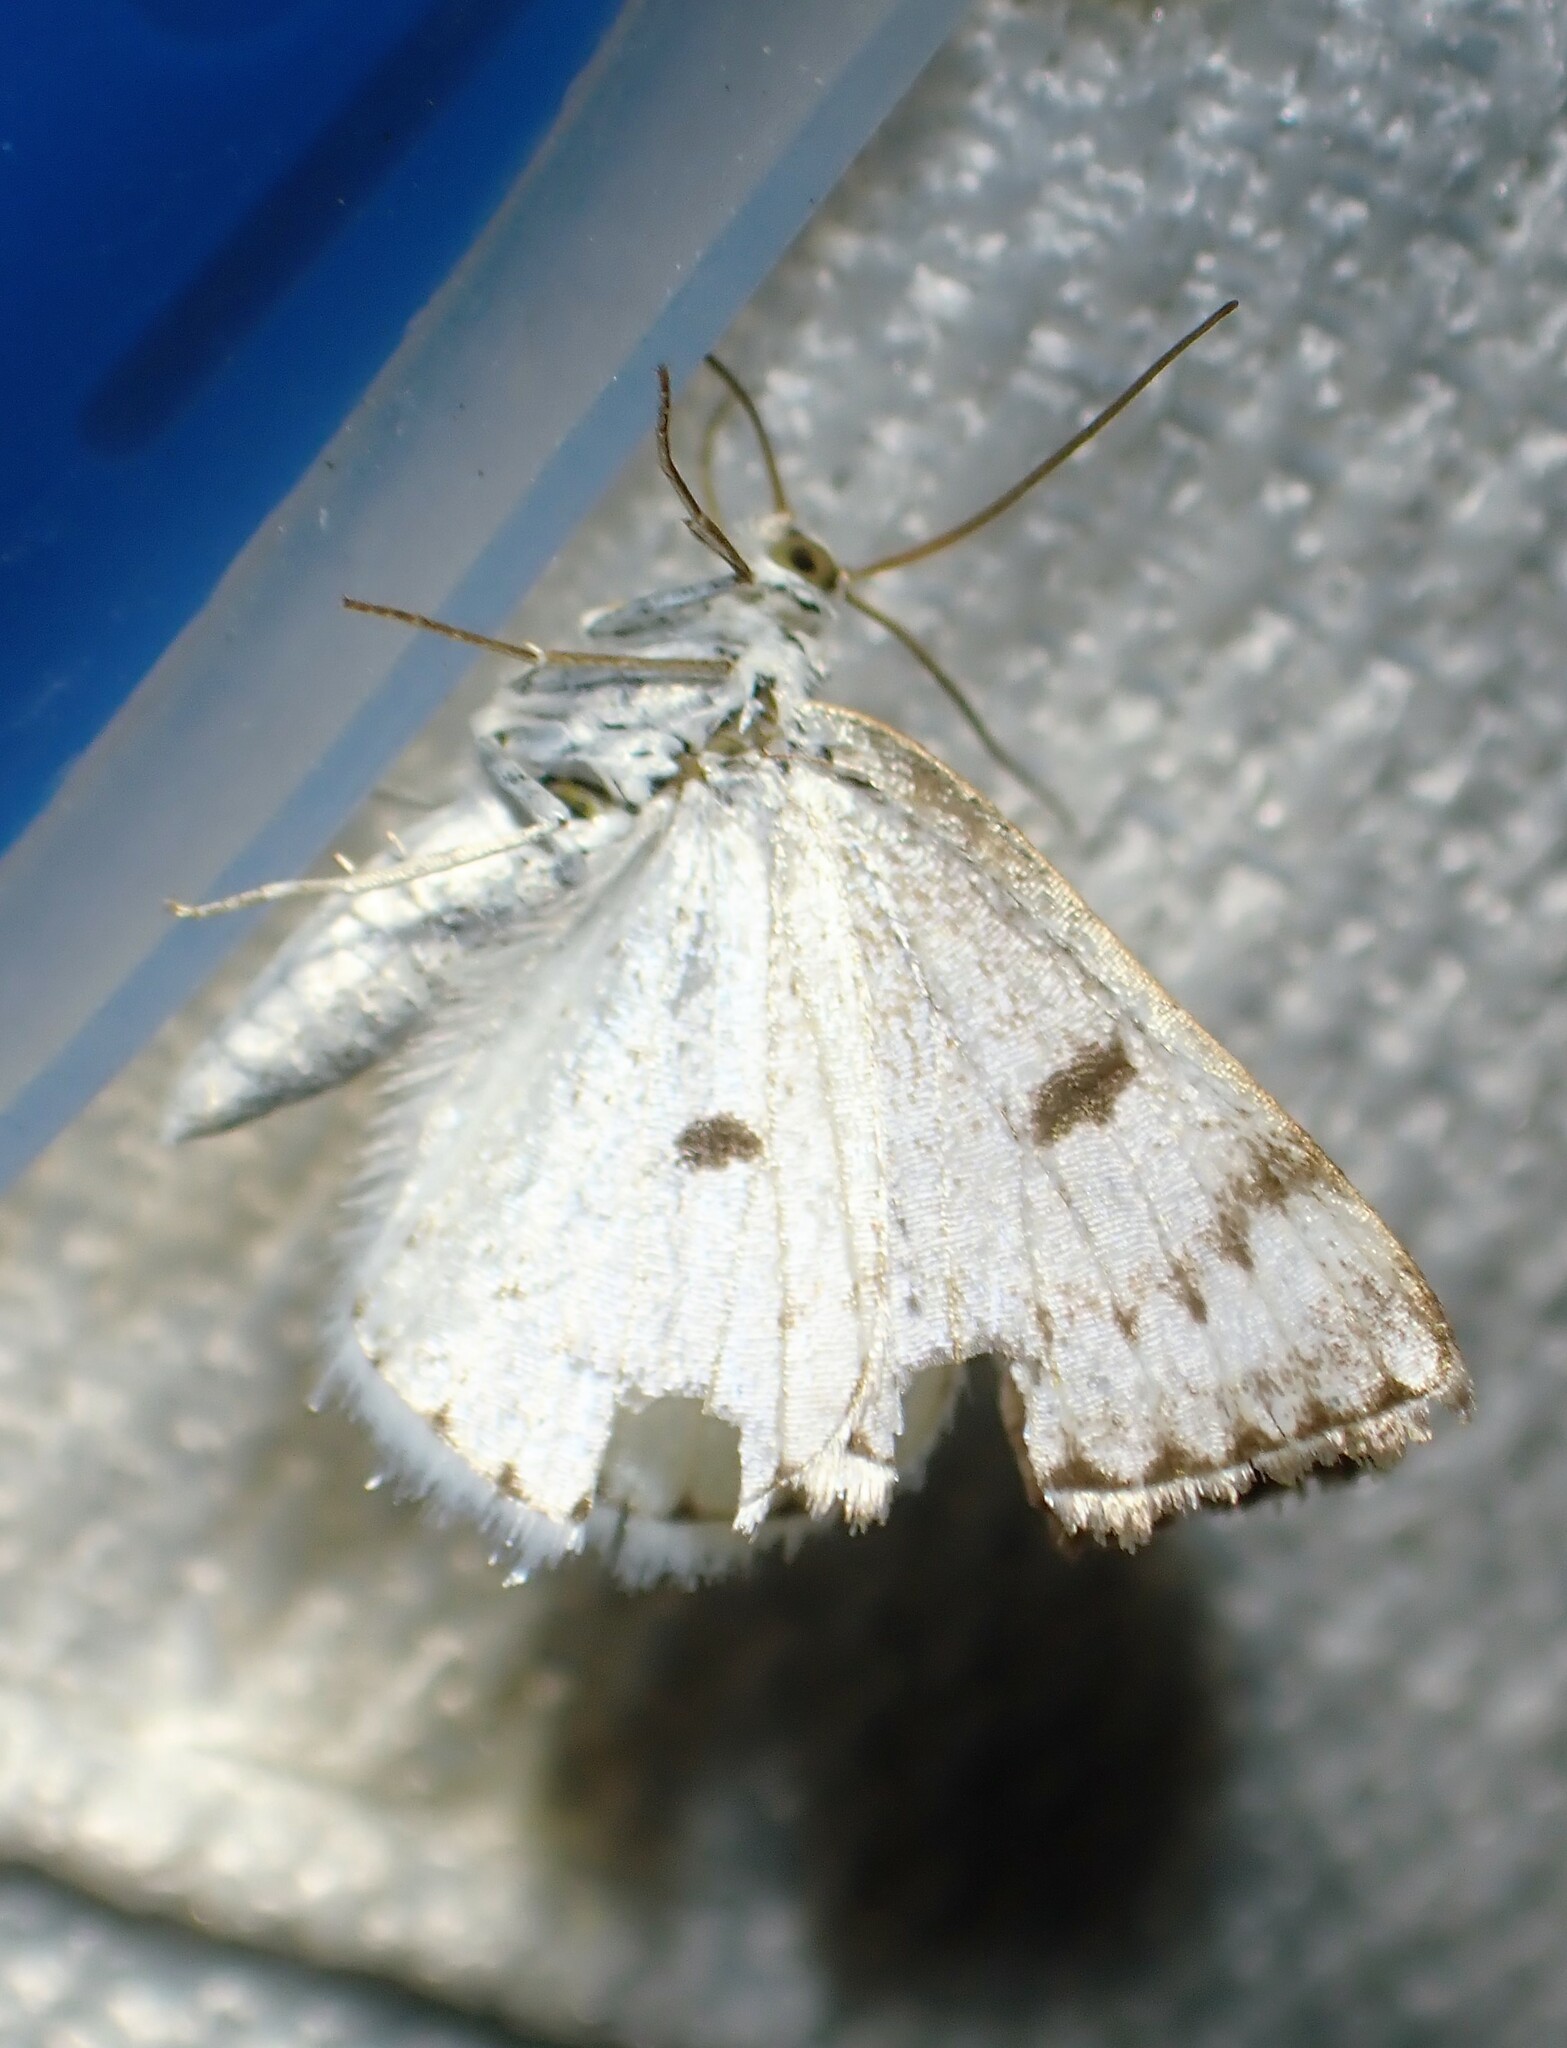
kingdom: Animalia
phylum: Arthropoda
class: Insecta
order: Lepidoptera
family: Geometridae
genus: Lomographa
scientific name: Lomographa semiclarata
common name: Bluish spring moth
